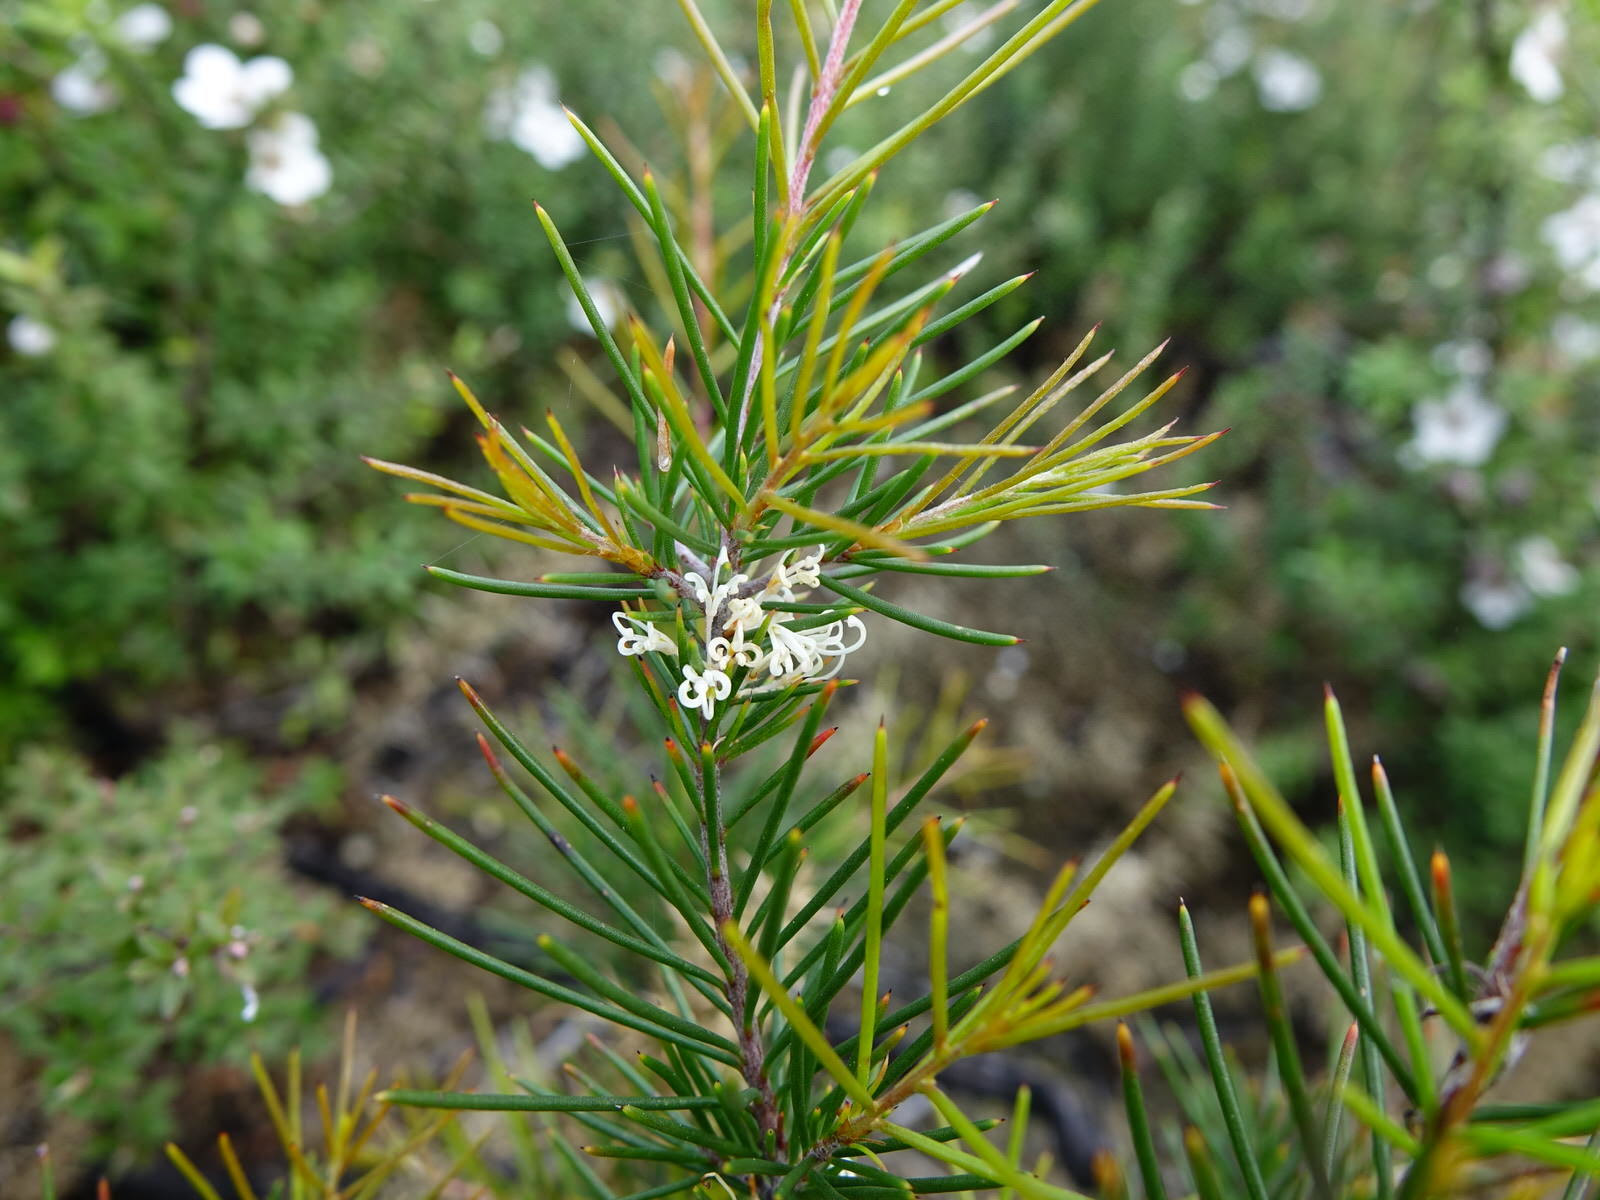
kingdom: Plantae
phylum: Tracheophyta
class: Magnoliopsida
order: Proteales
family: Proteaceae
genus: Hakea
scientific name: Hakea sericea
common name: Needle bush
